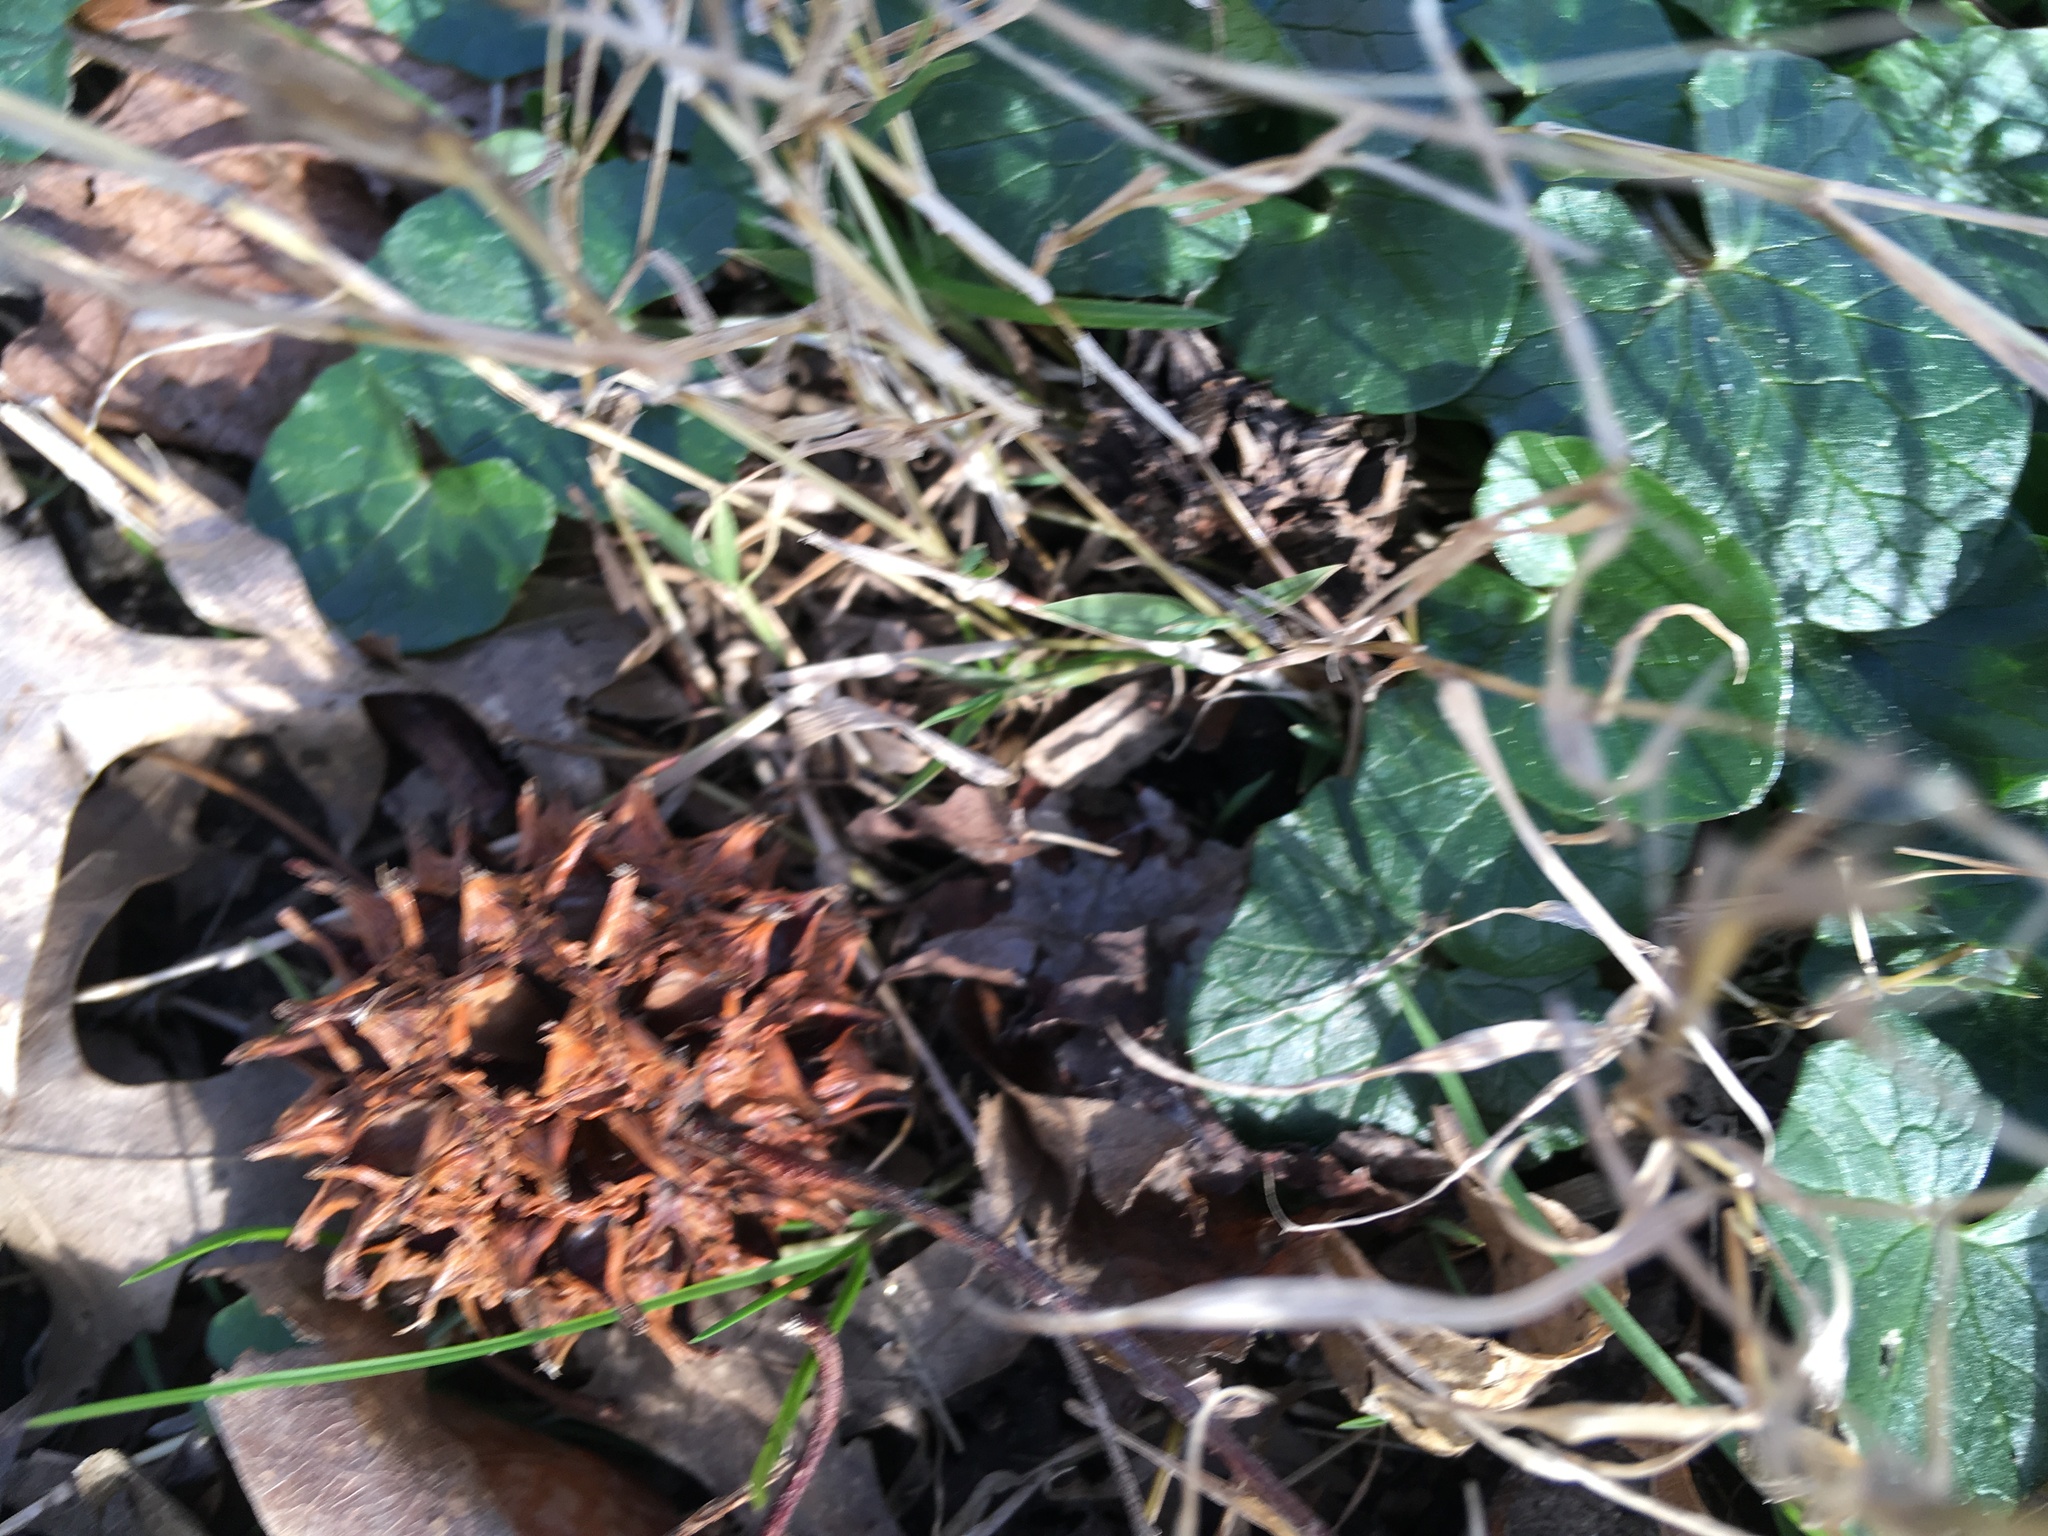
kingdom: Plantae
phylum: Tracheophyta
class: Magnoliopsida
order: Ranunculales
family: Ranunculaceae
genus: Ficaria
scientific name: Ficaria verna
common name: Lesser celandine
